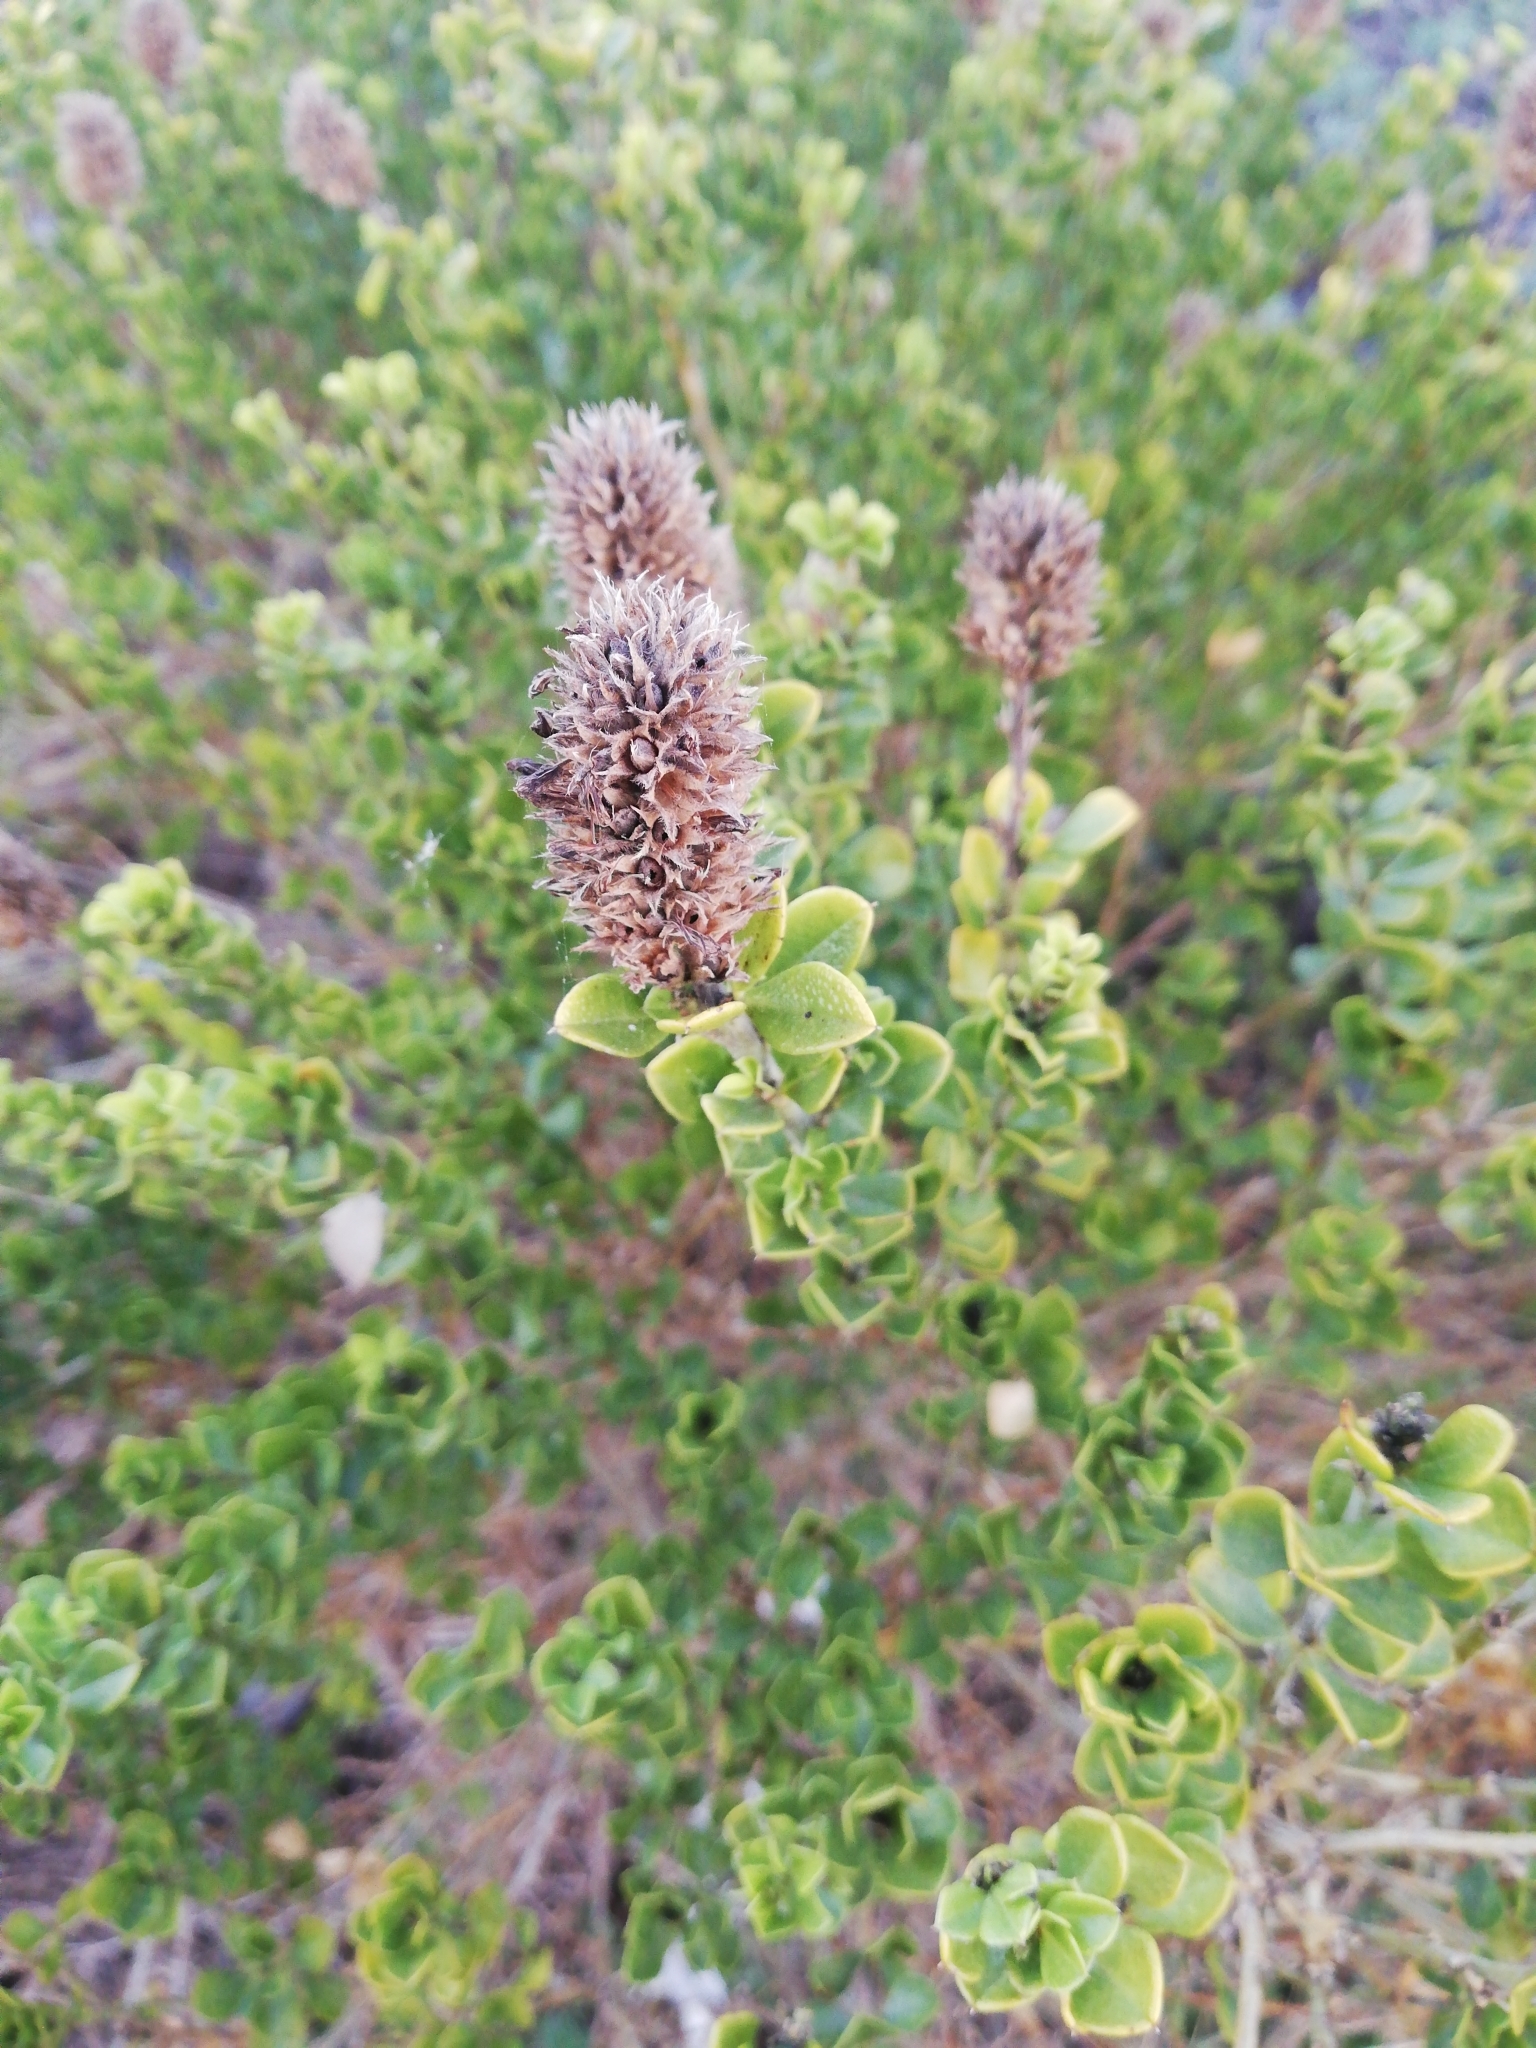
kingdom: Plantae
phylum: Tracheophyta
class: Magnoliopsida
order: Fabales
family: Fabaceae
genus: Psoralea
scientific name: Psoralea bracteolata
